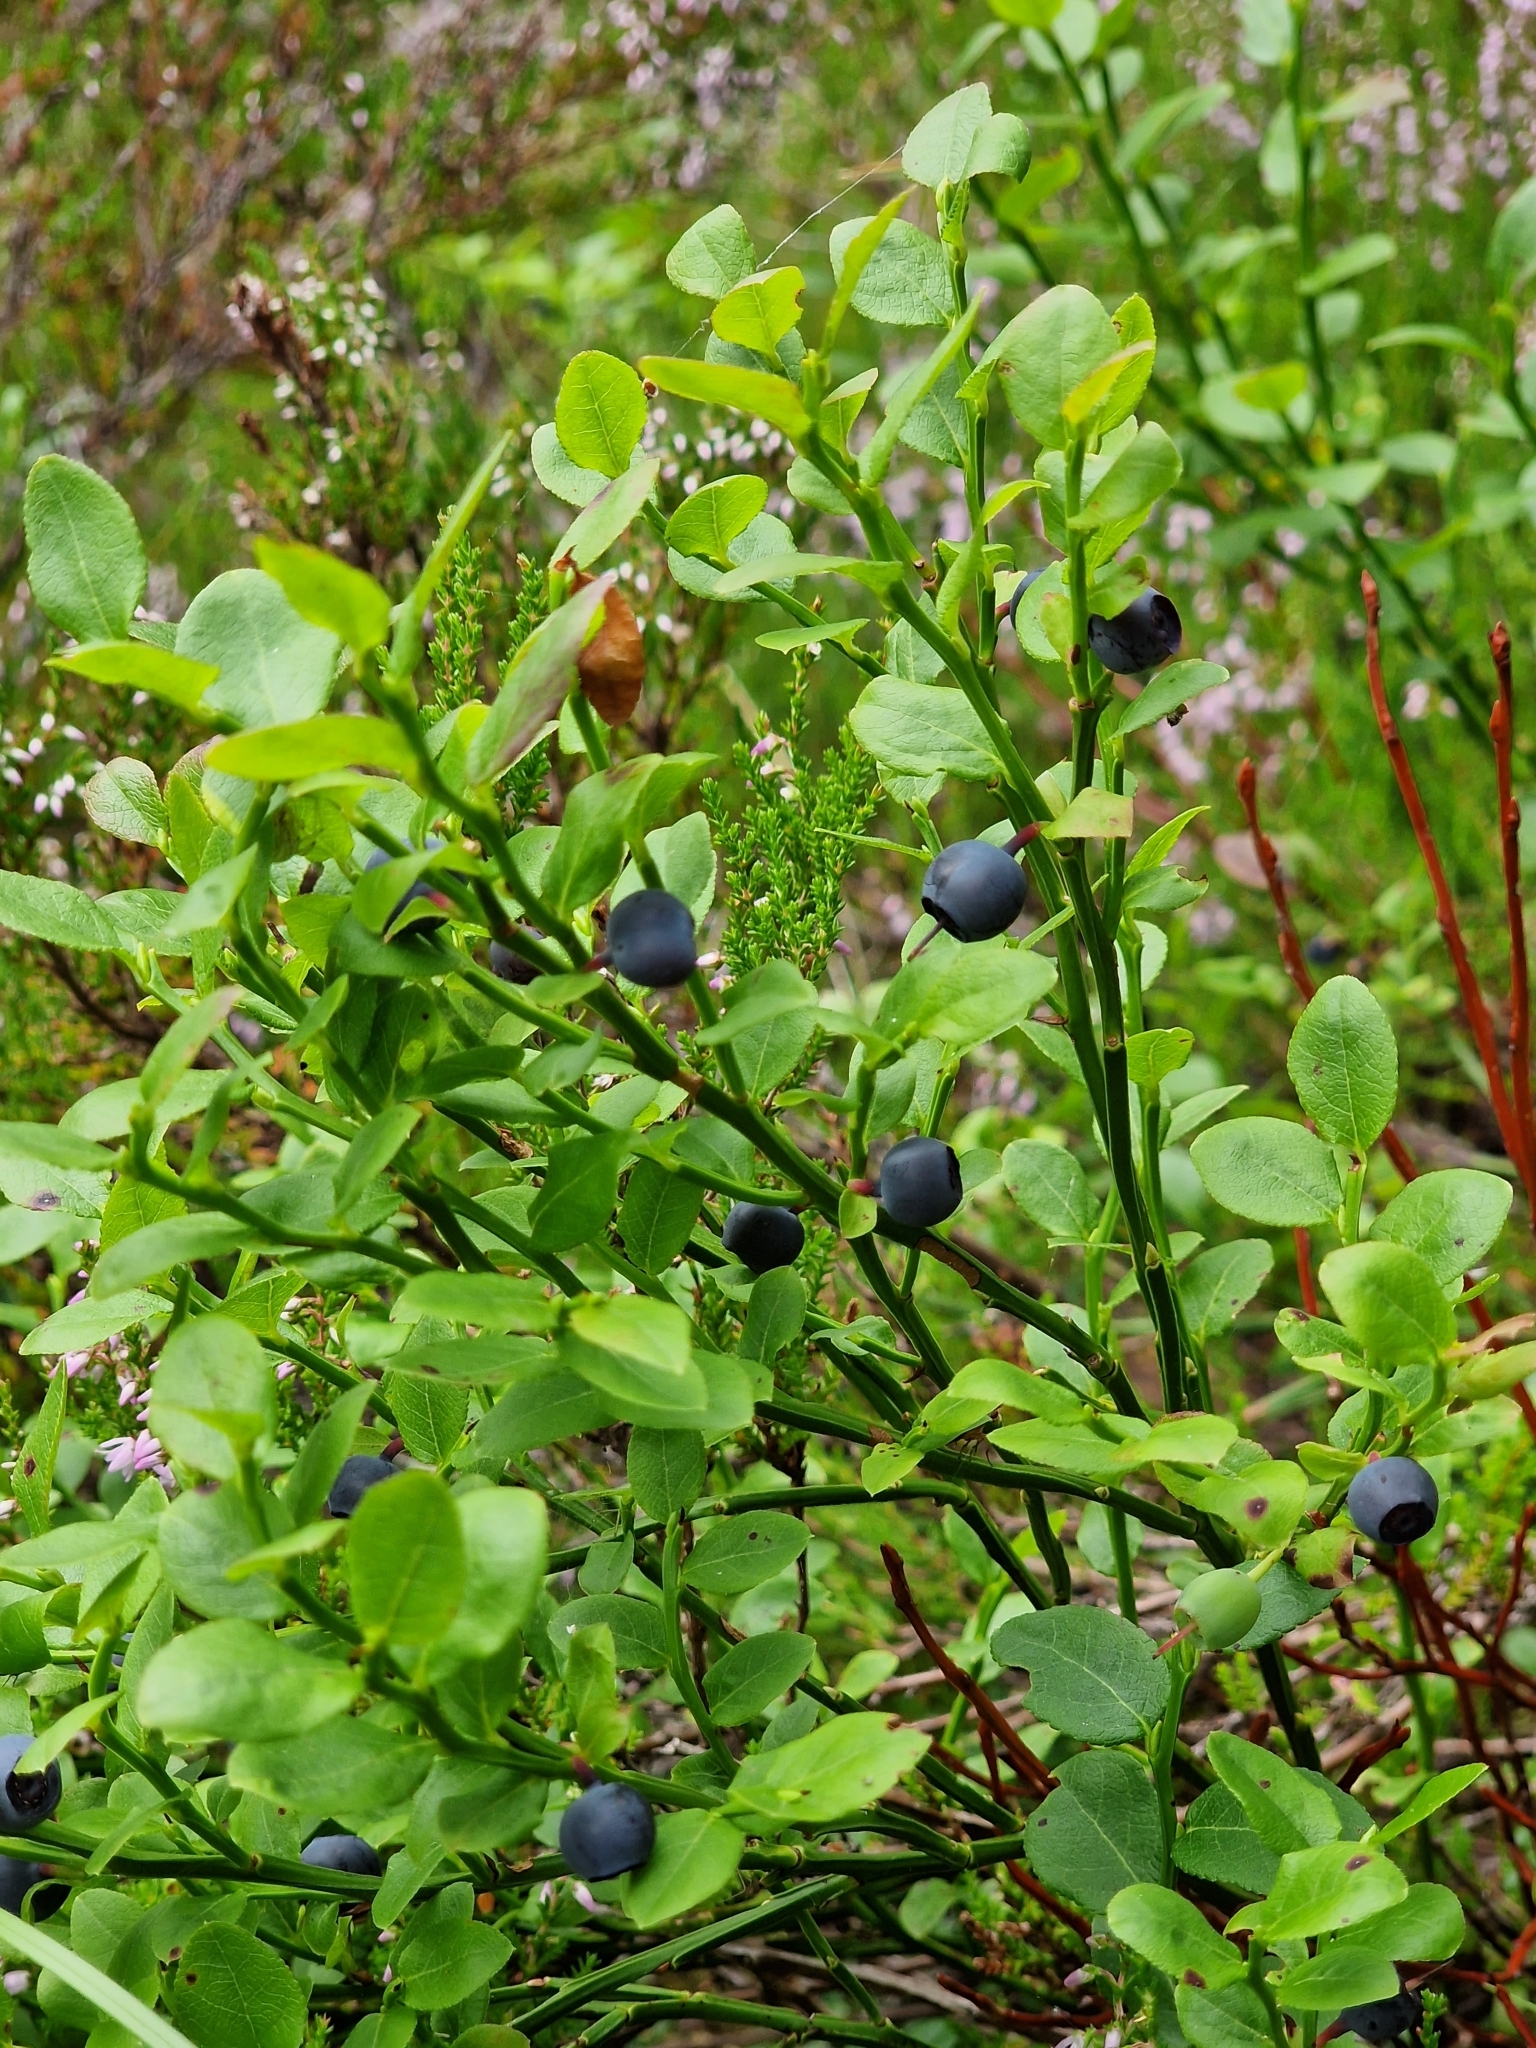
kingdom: Plantae
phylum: Tracheophyta
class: Magnoliopsida
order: Ericales
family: Ericaceae
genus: Vaccinium
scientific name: Vaccinium myrtillus
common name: Bilberry
